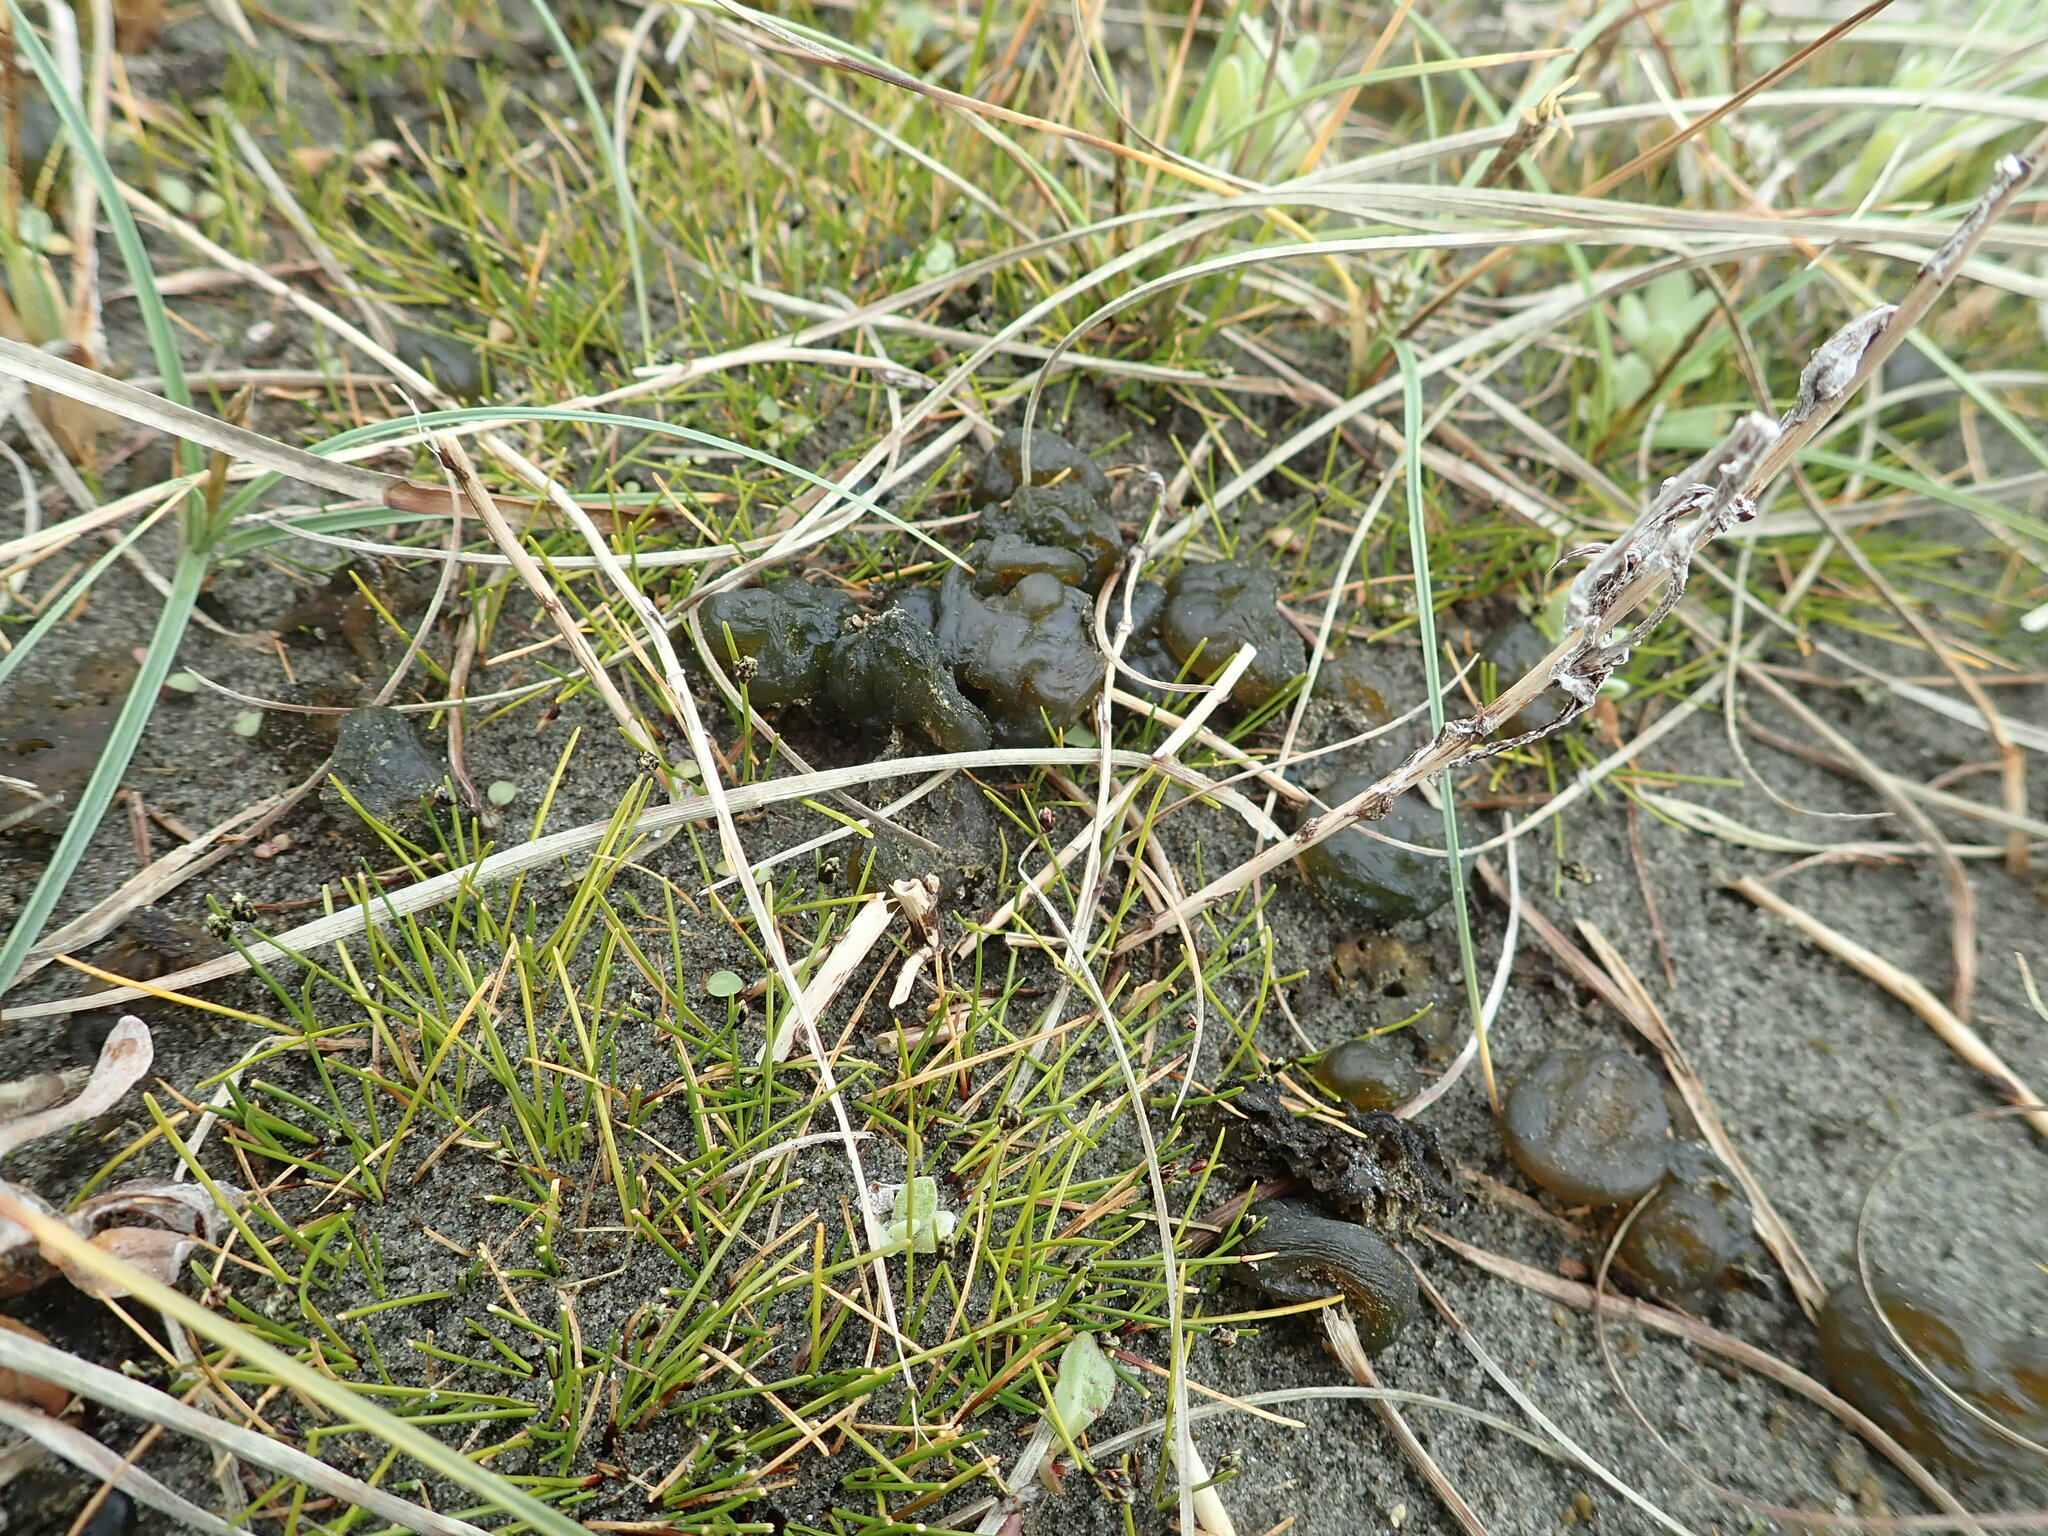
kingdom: Bacteria
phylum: Cyanobacteria
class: Cyanobacteriia
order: Cyanobacteriales
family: Nostocaceae
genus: Nostoc
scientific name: Nostoc commune
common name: Star jelly
